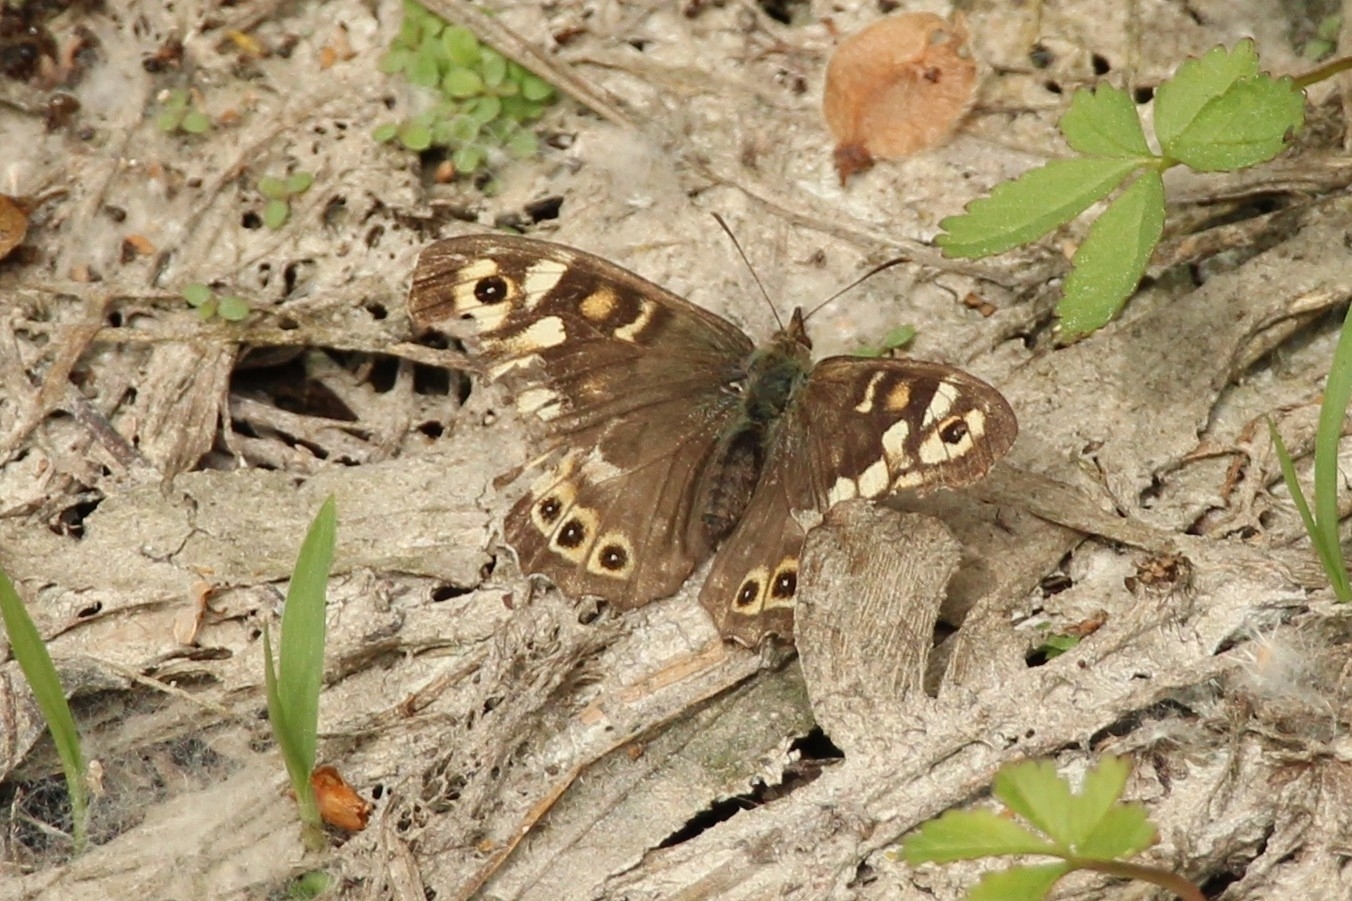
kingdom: Animalia
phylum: Arthropoda
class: Insecta
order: Lepidoptera
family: Nymphalidae
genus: Pararge
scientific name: Pararge aegeria
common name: Speckled wood
